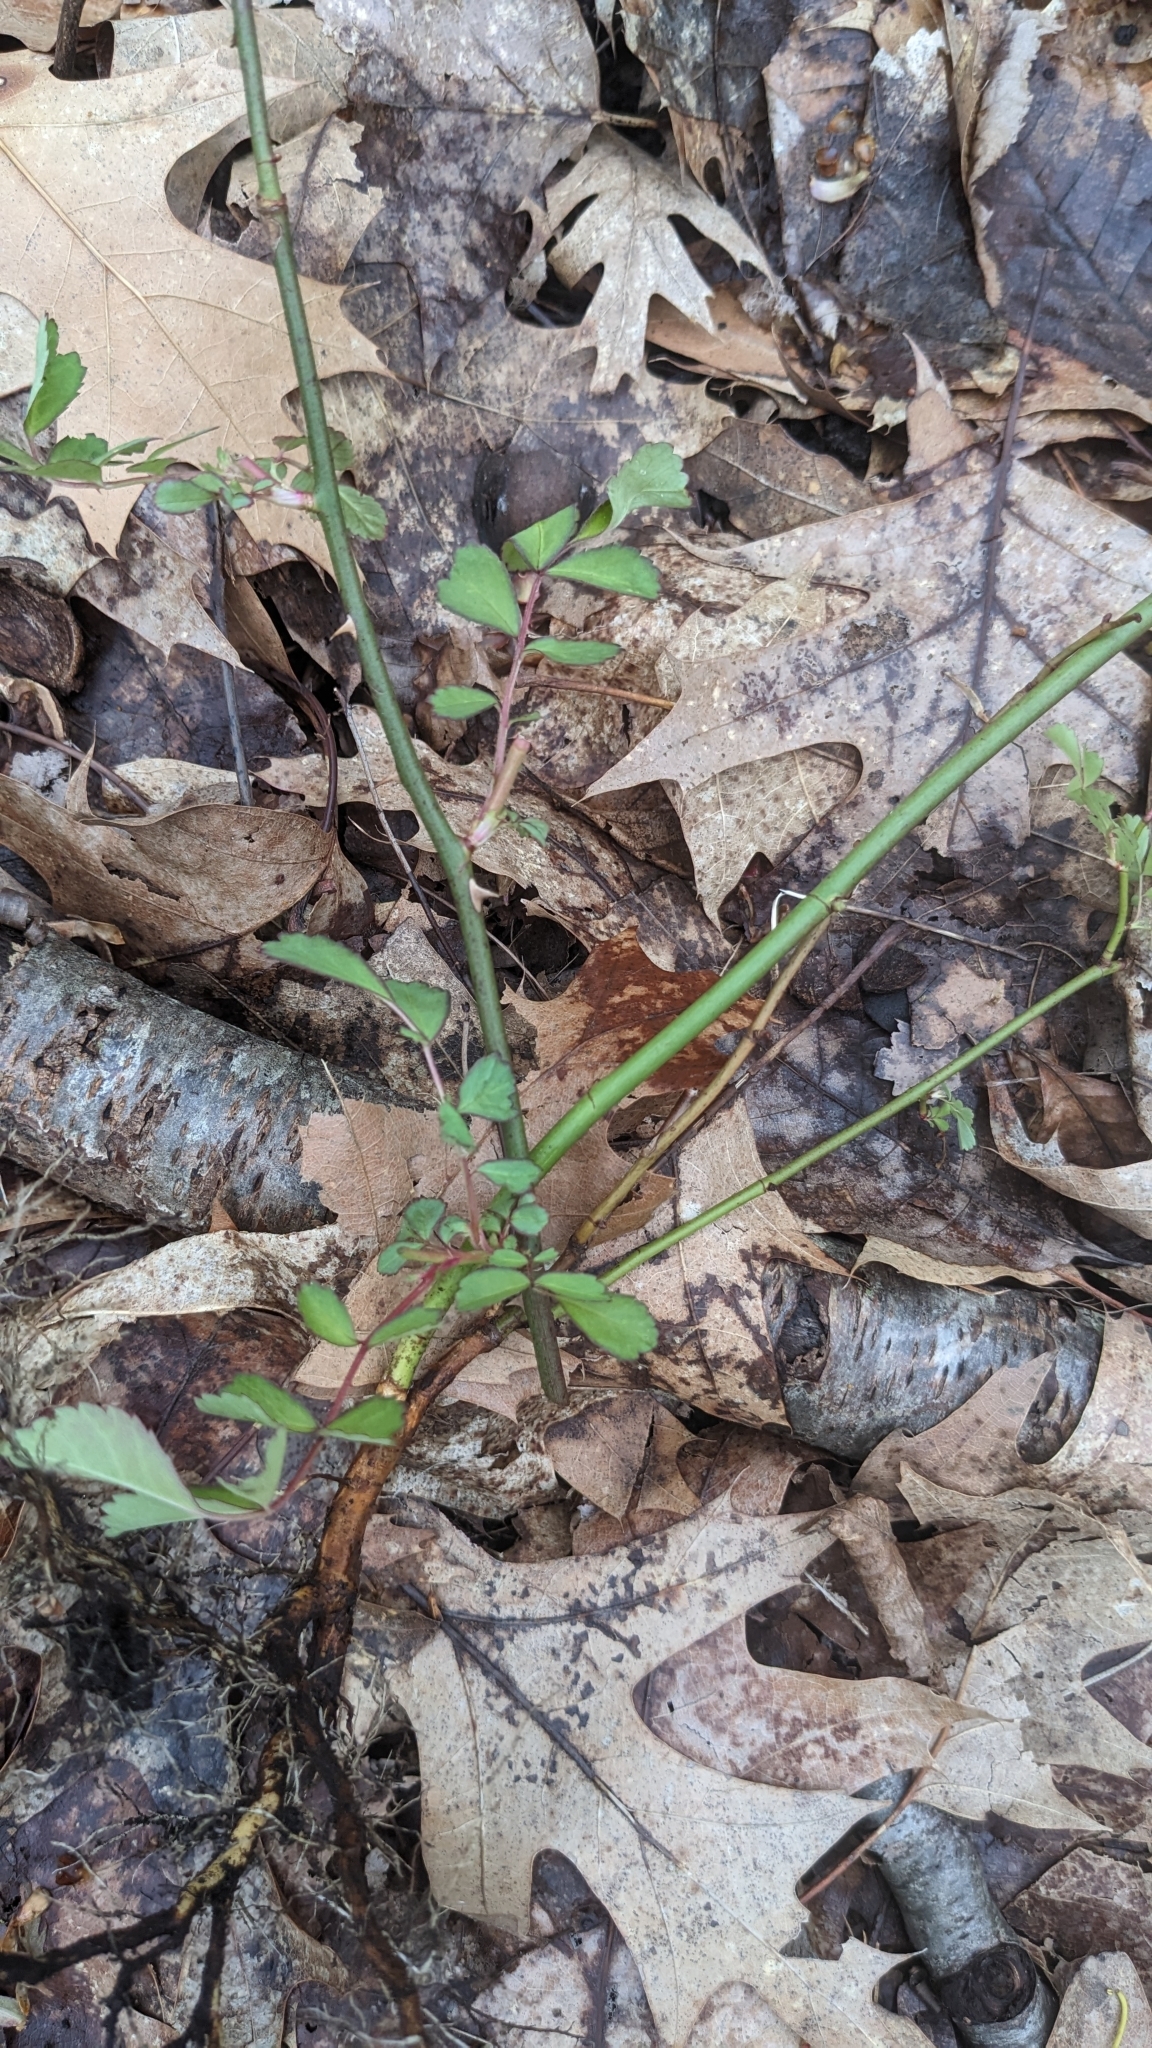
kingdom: Plantae
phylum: Tracheophyta
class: Magnoliopsida
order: Rosales
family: Rosaceae
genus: Rosa
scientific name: Rosa multiflora
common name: Multiflora rose
